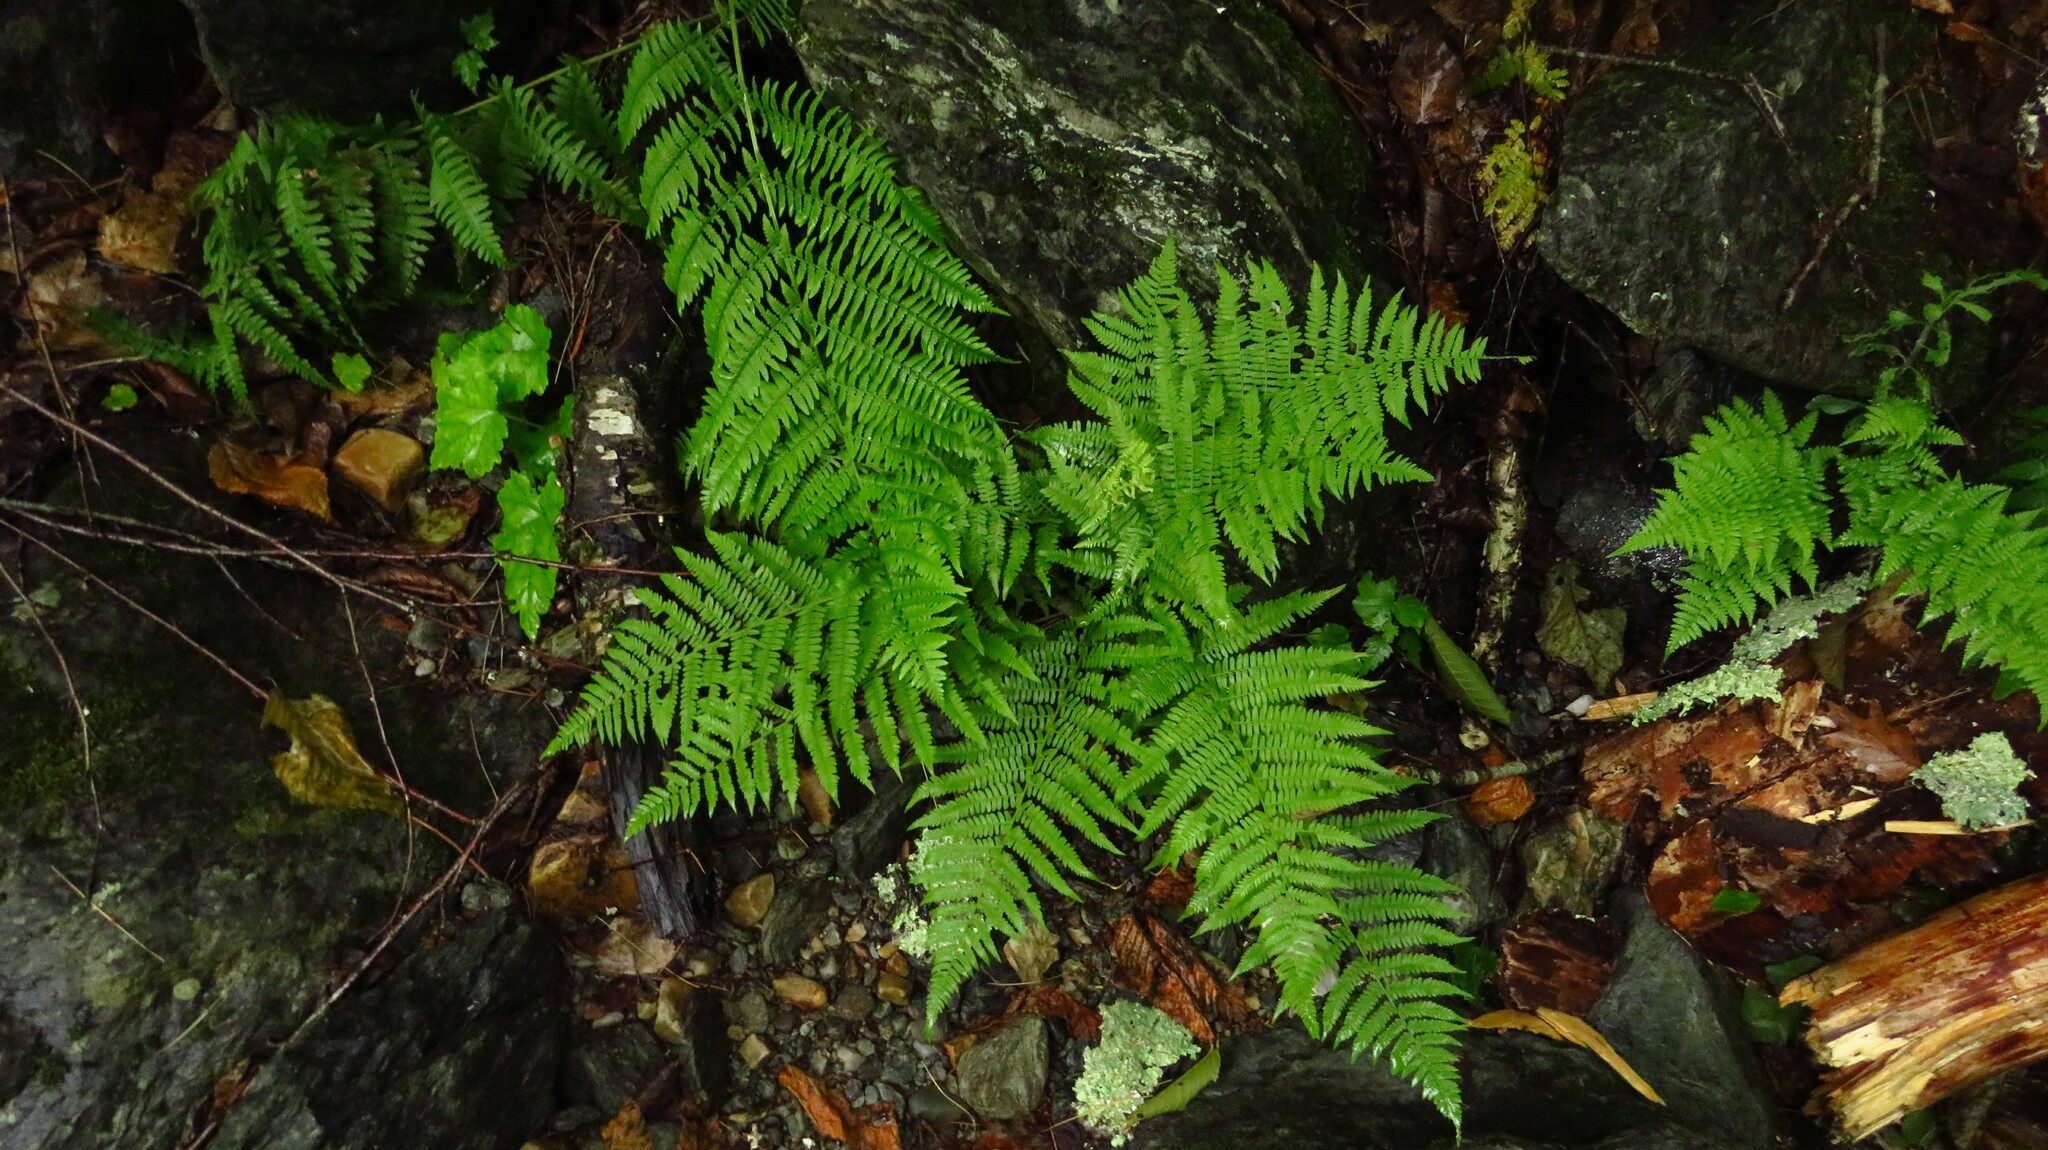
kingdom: Plantae
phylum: Tracheophyta
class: Polypodiopsida
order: Polypodiales
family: Athyriaceae
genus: Athyrium
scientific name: Athyrium angustum
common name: Northern lady fern
